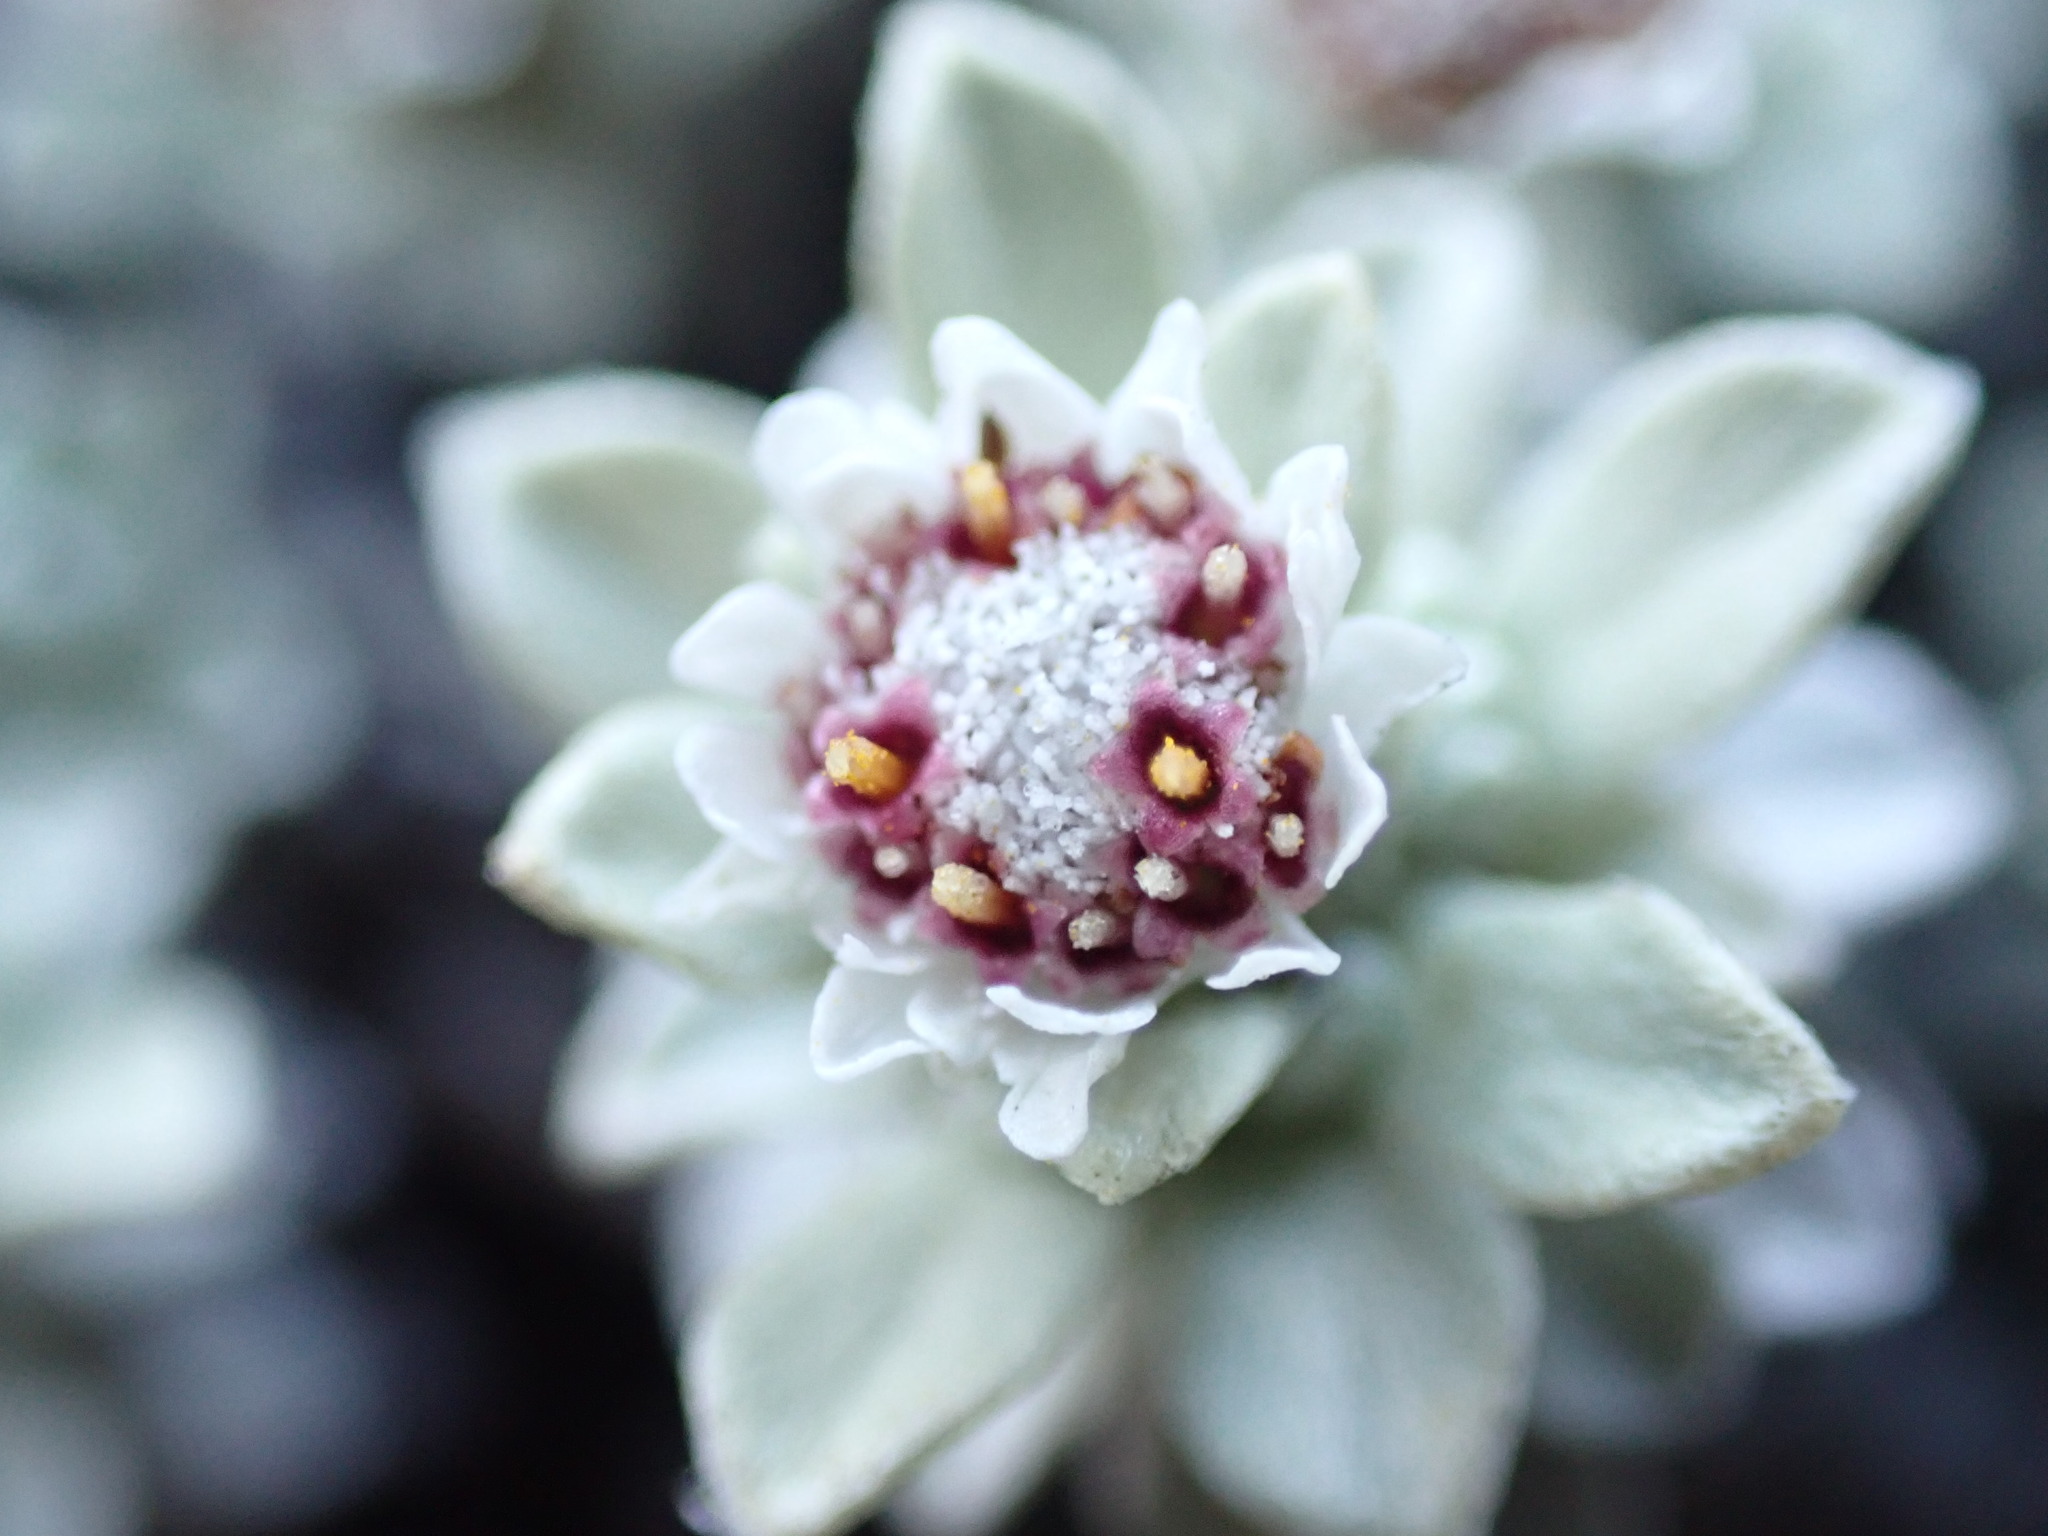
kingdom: Plantae
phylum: Tracheophyta
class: Magnoliopsida
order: Asterales
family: Asteraceae
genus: Ewartia
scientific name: Ewartia nubigena
